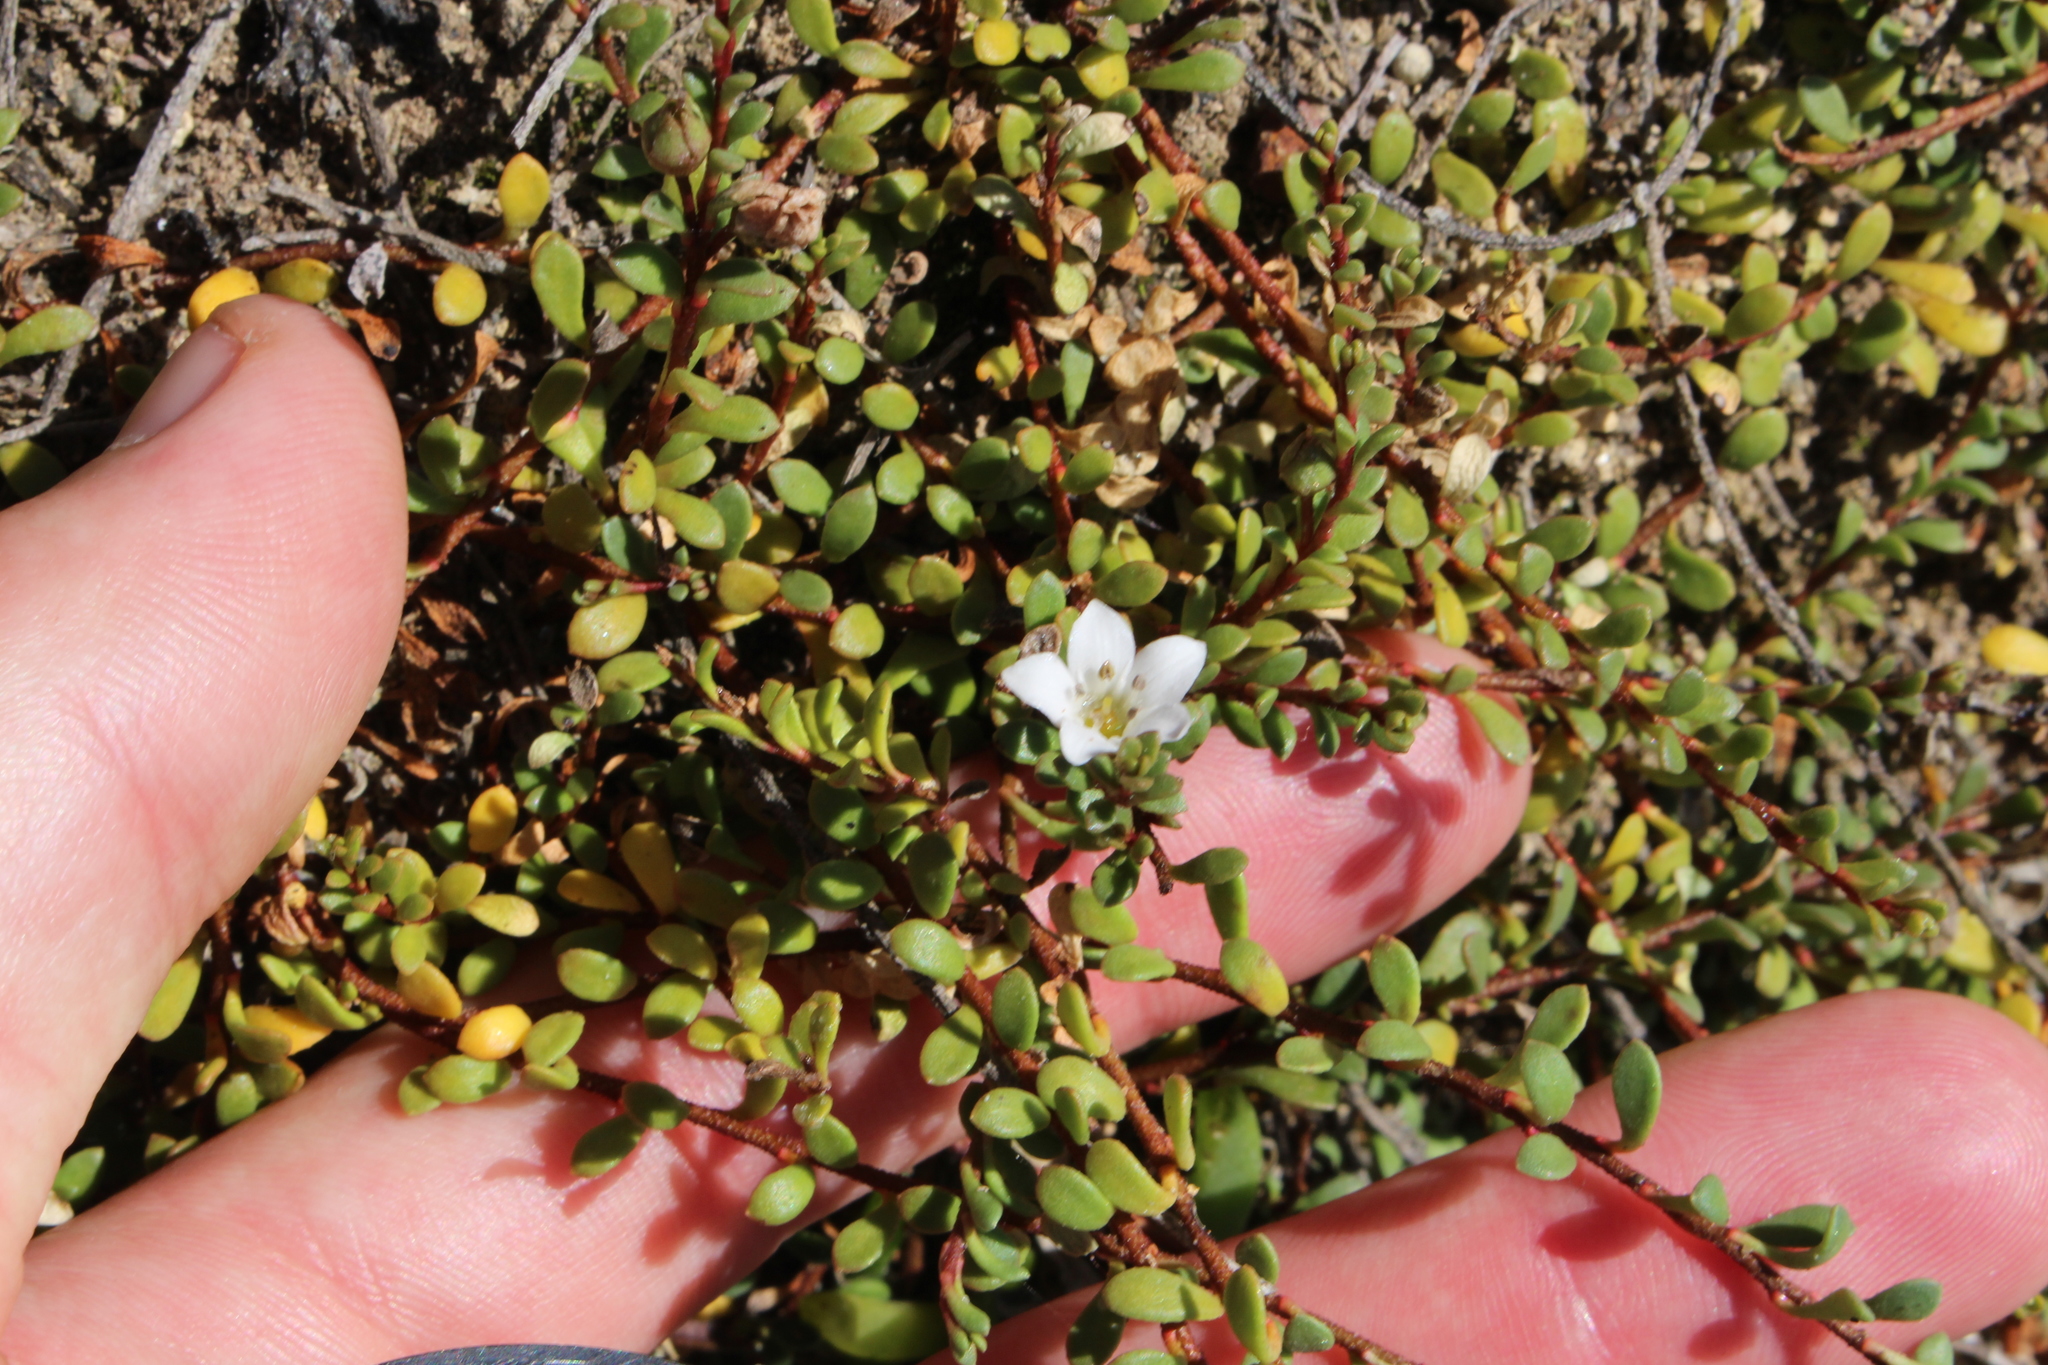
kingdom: Plantae
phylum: Tracheophyta
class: Magnoliopsida
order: Ericales
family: Primulaceae
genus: Samolus
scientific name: Samolus repens
